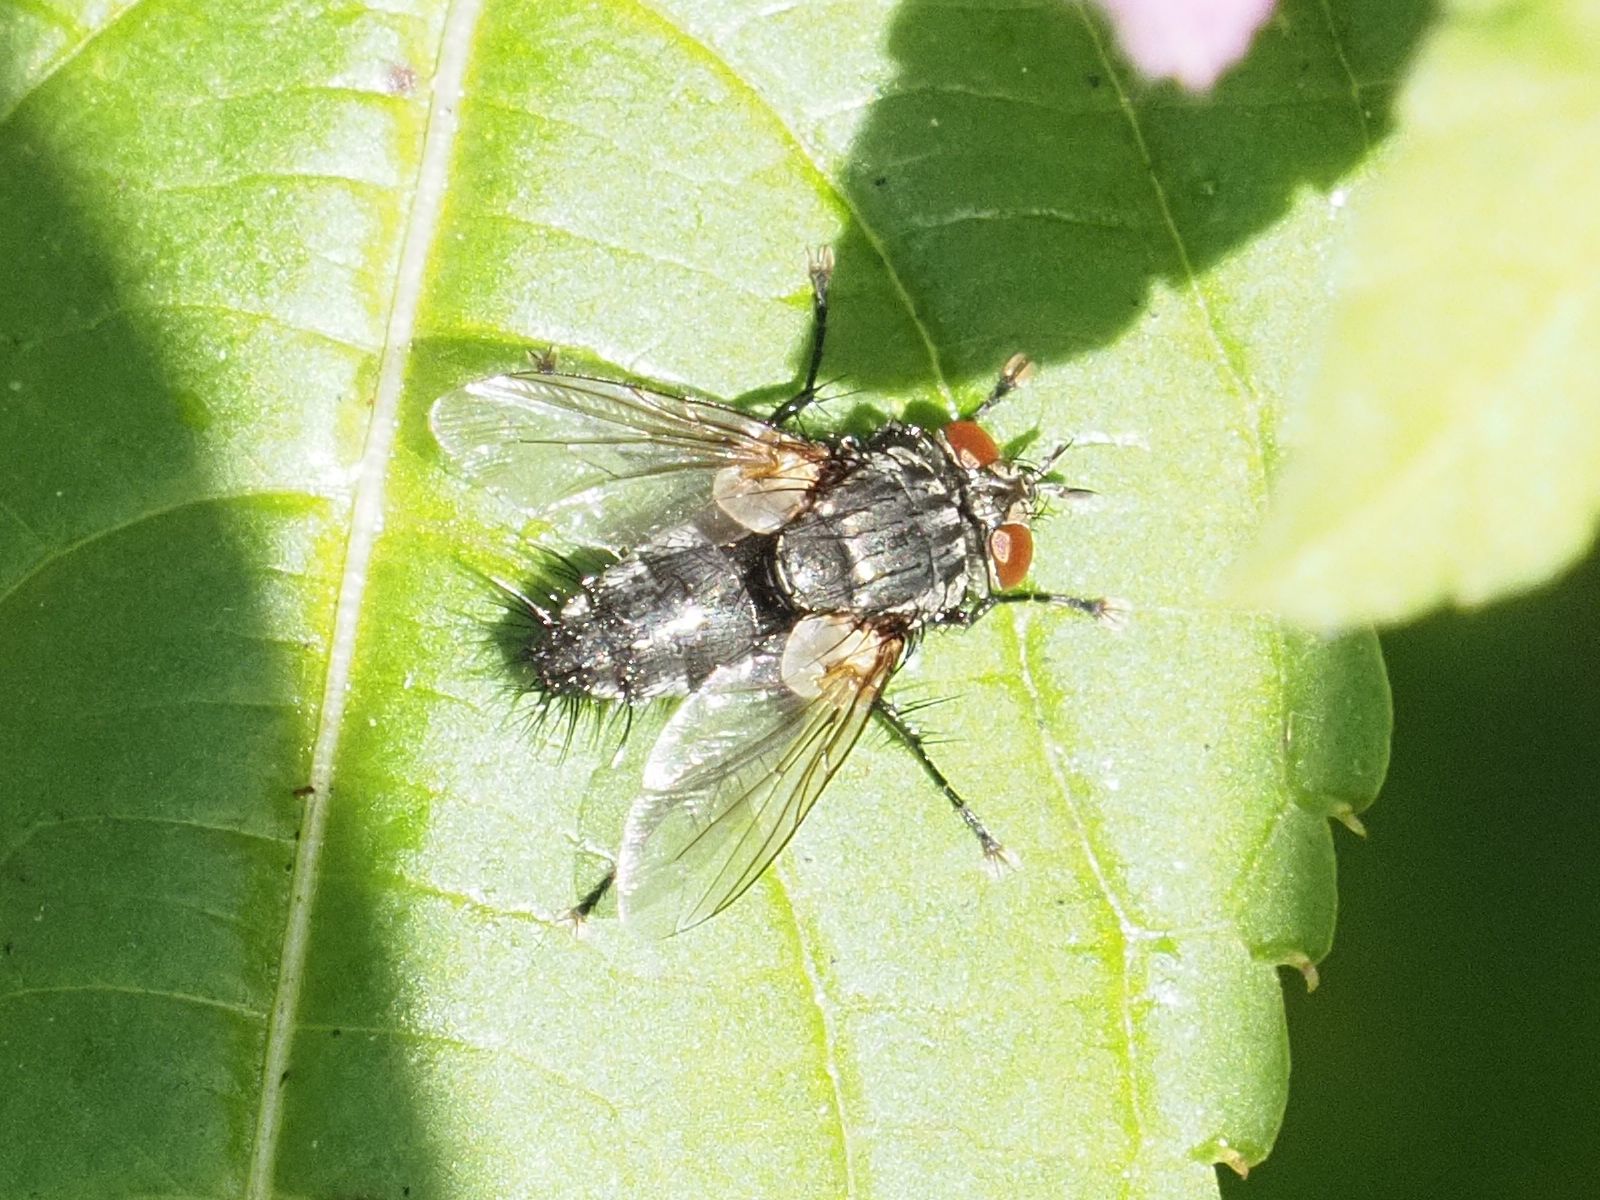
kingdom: Animalia
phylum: Arthropoda
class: Insecta
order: Diptera
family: Tachinidae
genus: Voria
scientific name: Voria ruralis
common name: Parasitic fly
